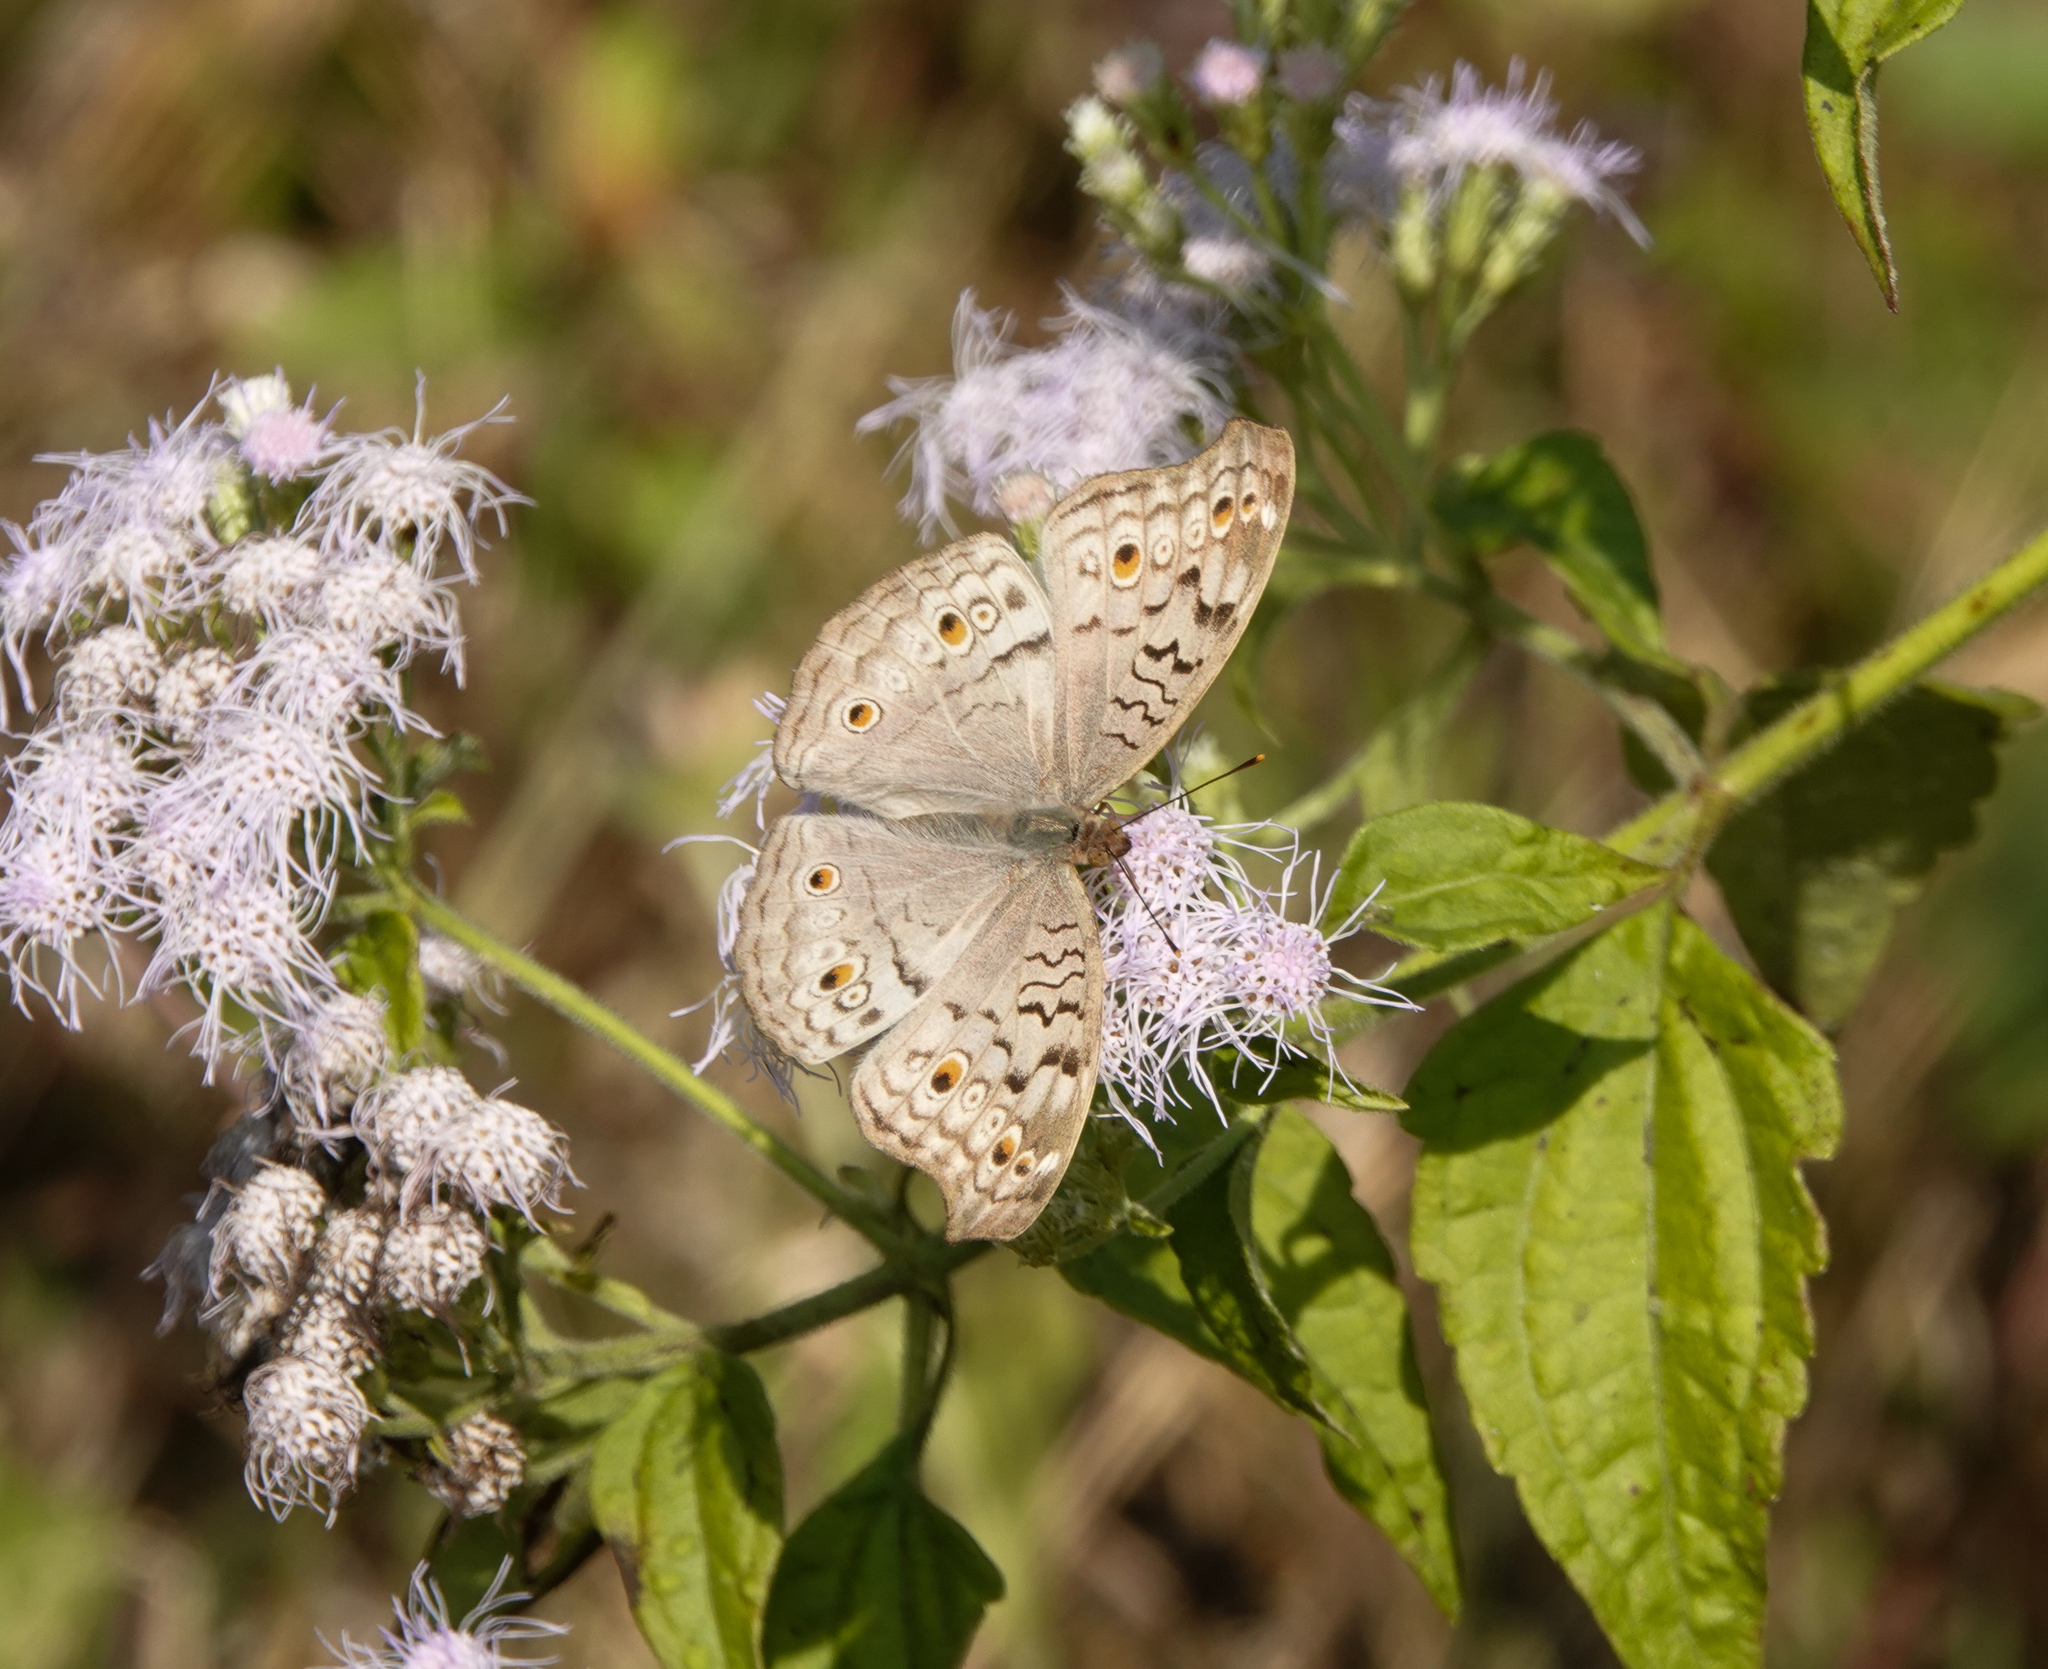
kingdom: Animalia
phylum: Arthropoda
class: Insecta
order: Lepidoptera
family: Nymphalidae
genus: Junonia
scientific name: Junonia atlites
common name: Grey pansy
